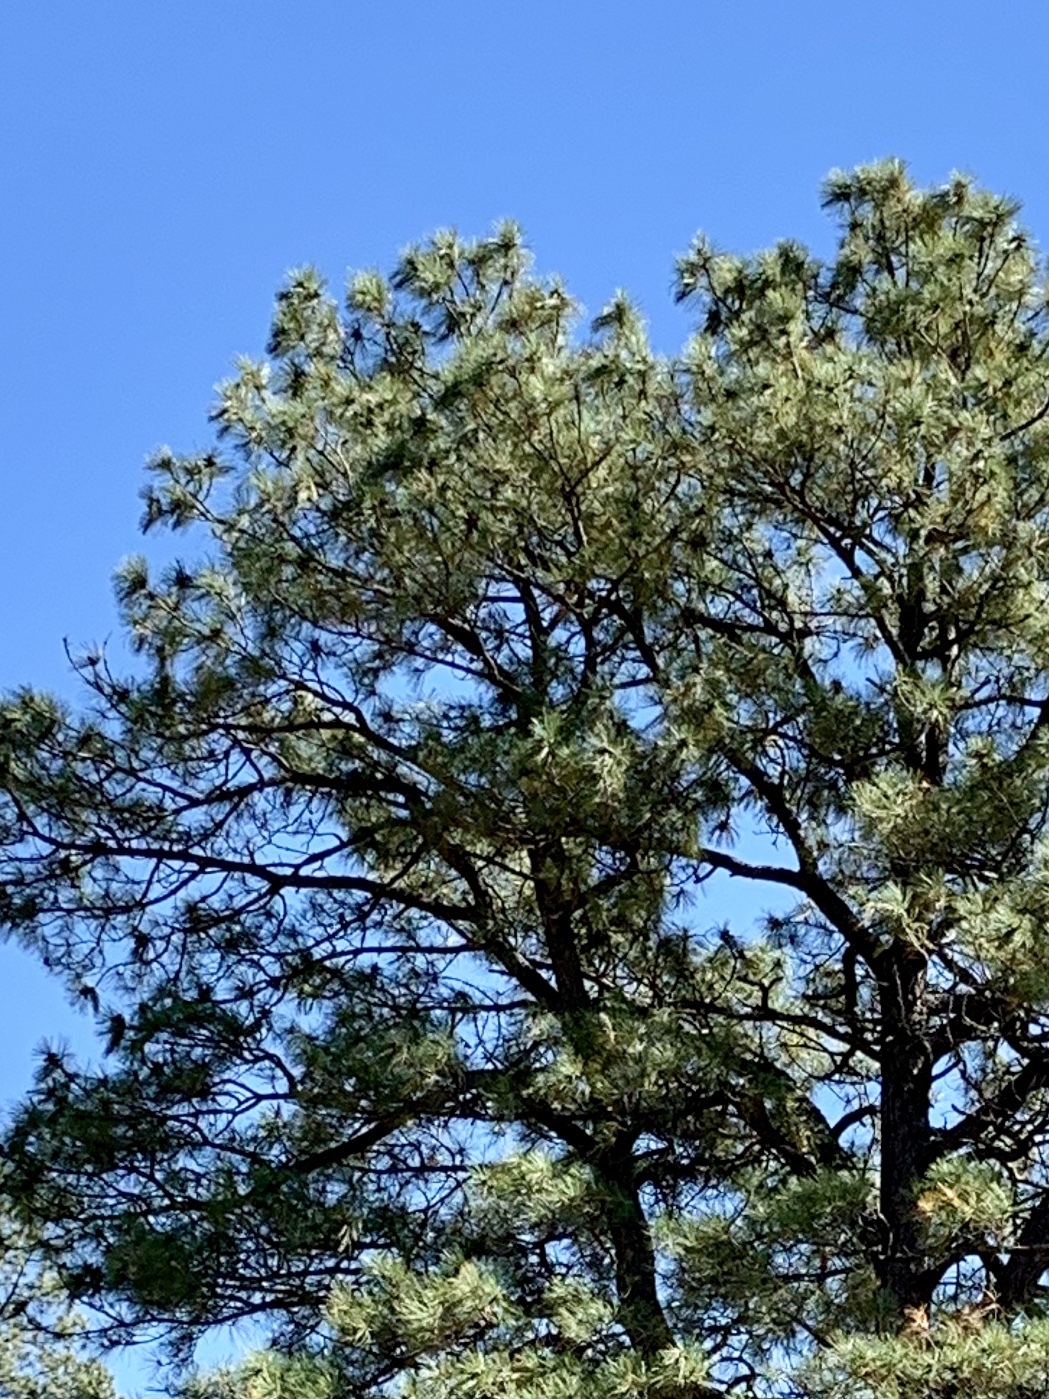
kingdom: Plantae
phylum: Tracheophyta
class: Pinopsida
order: Pinales
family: Pinaceae
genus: Pinus
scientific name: Pinus ponderosa
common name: Western yellow-pine
